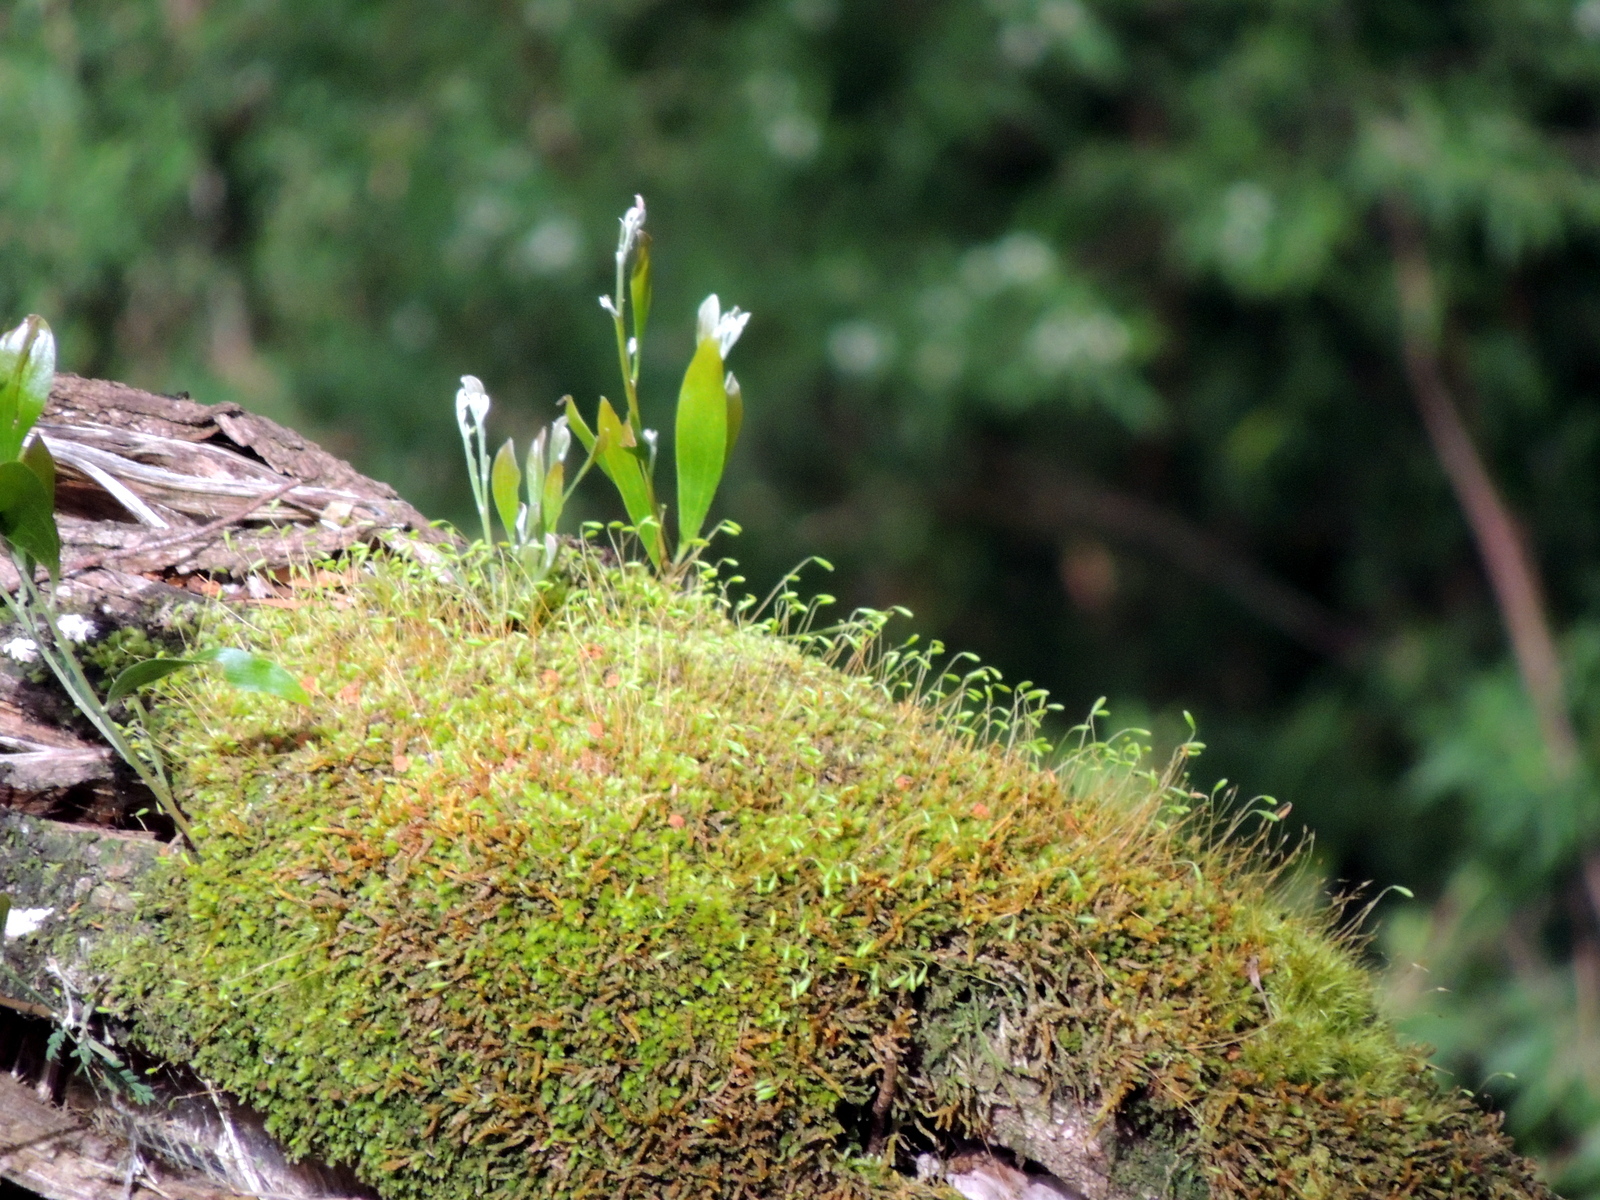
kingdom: Plantae
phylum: Bryophyta
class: Bryopsida
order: Bryales
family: Leptostomataceae
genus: Leptostomum
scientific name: Leptostomum inclinans
